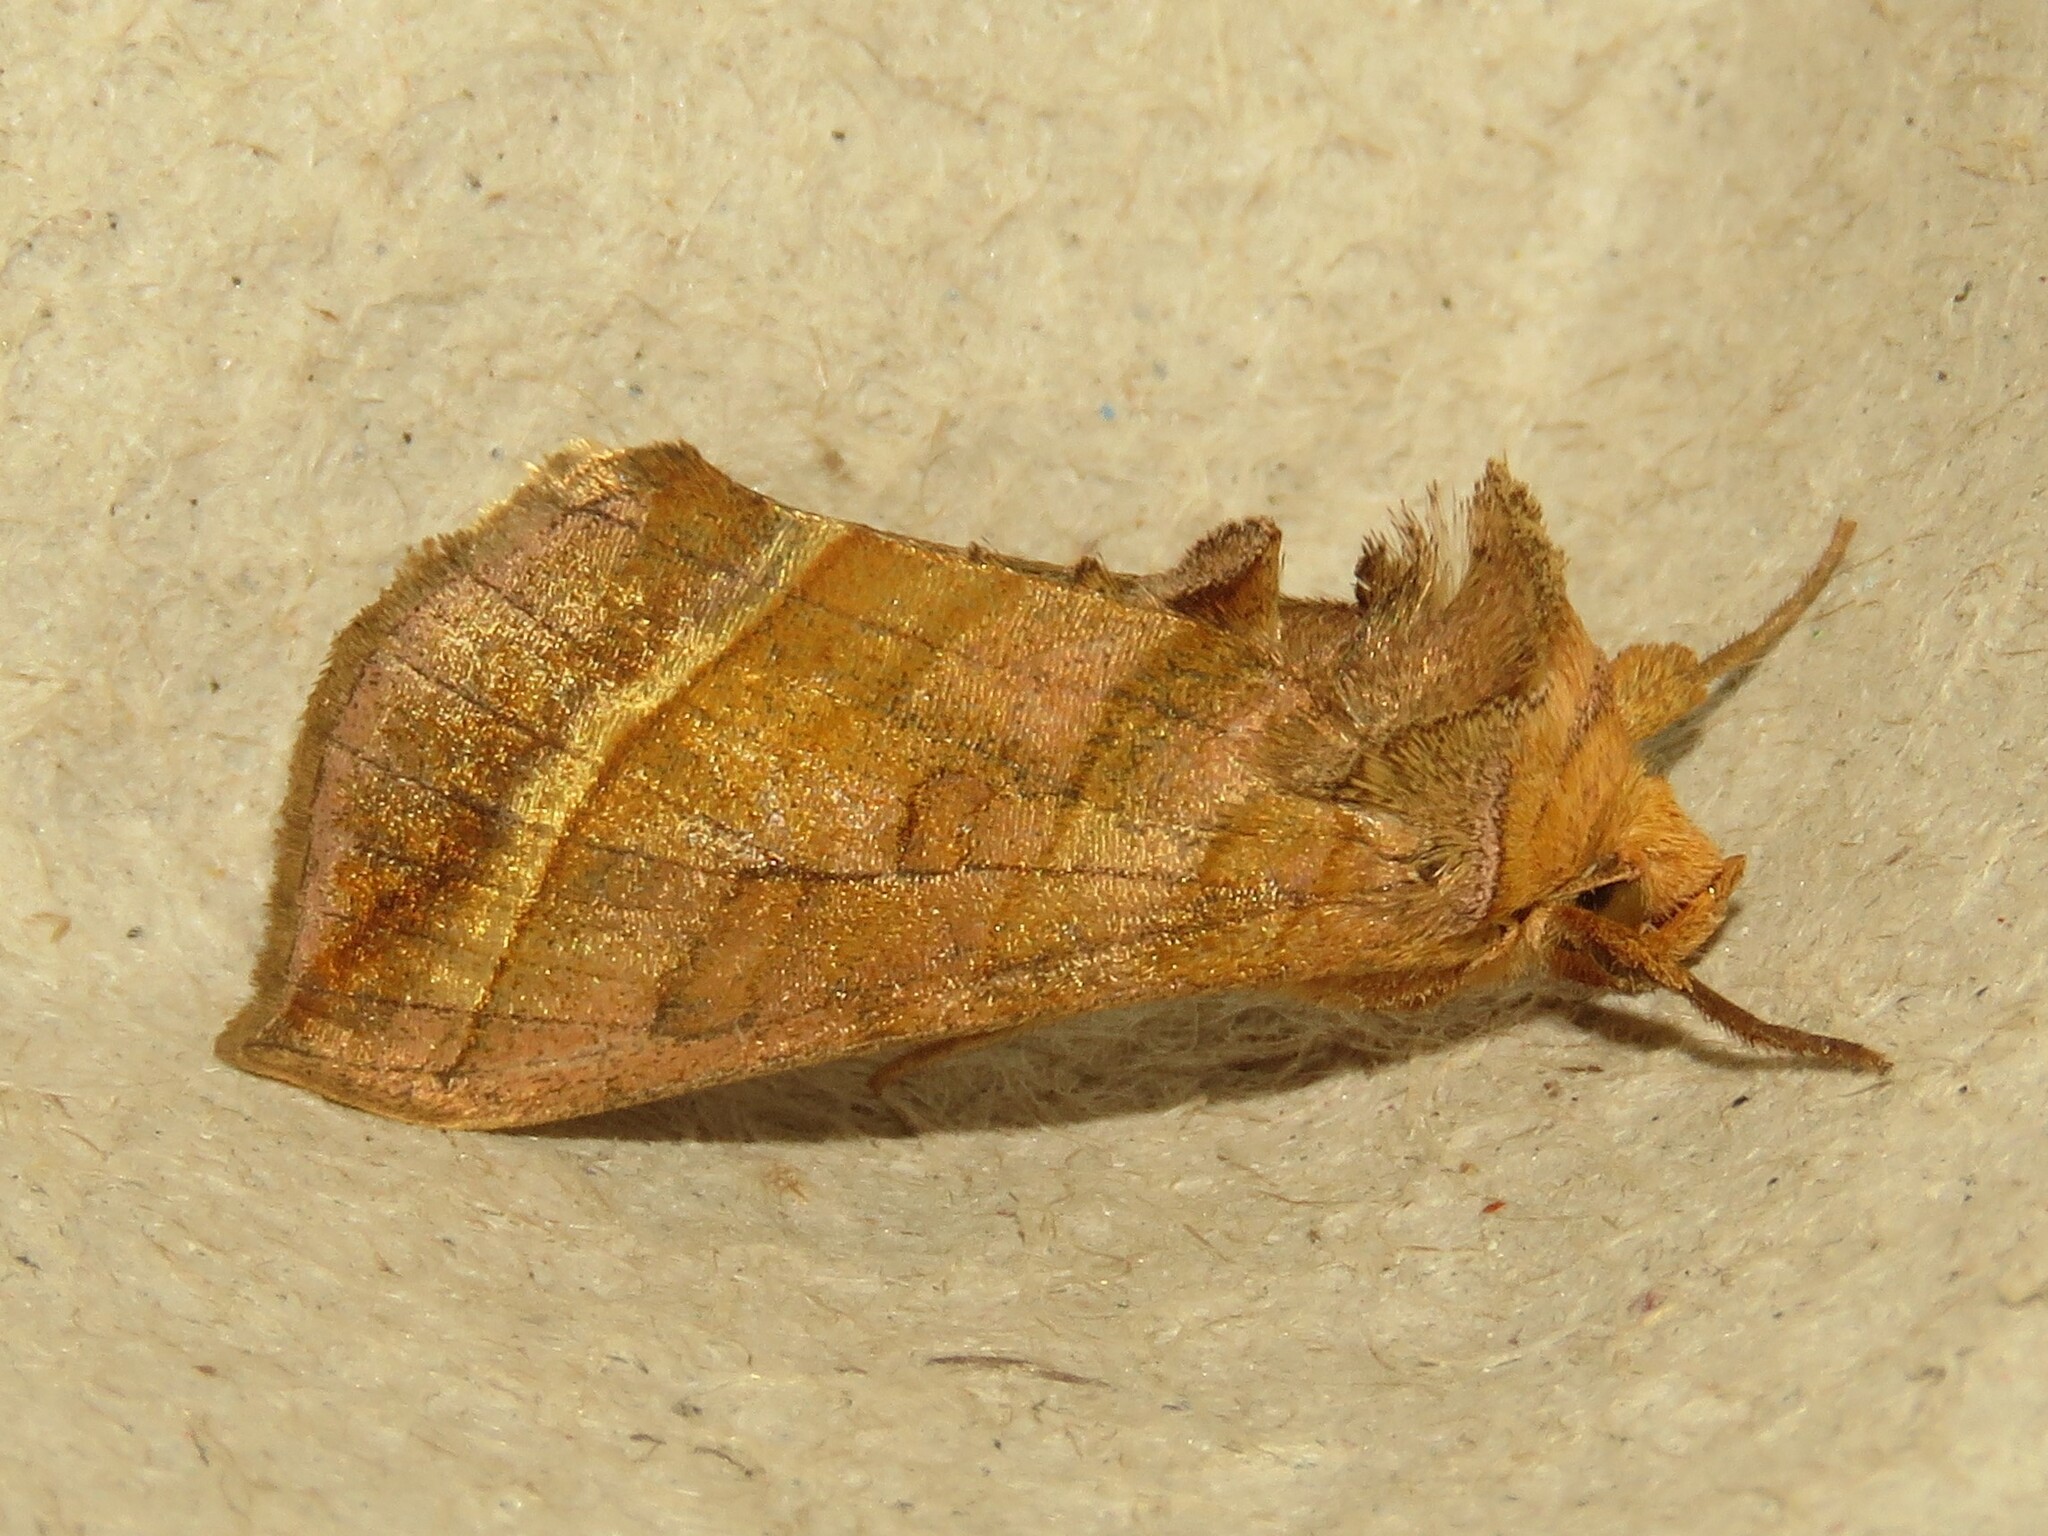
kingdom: Animalia
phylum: Arthropoda
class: Insecta
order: Lepidoptera
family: Noctuidae
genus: Diachrysia
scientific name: Diachrysia aereoides
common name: Dark-spotted looper moth
